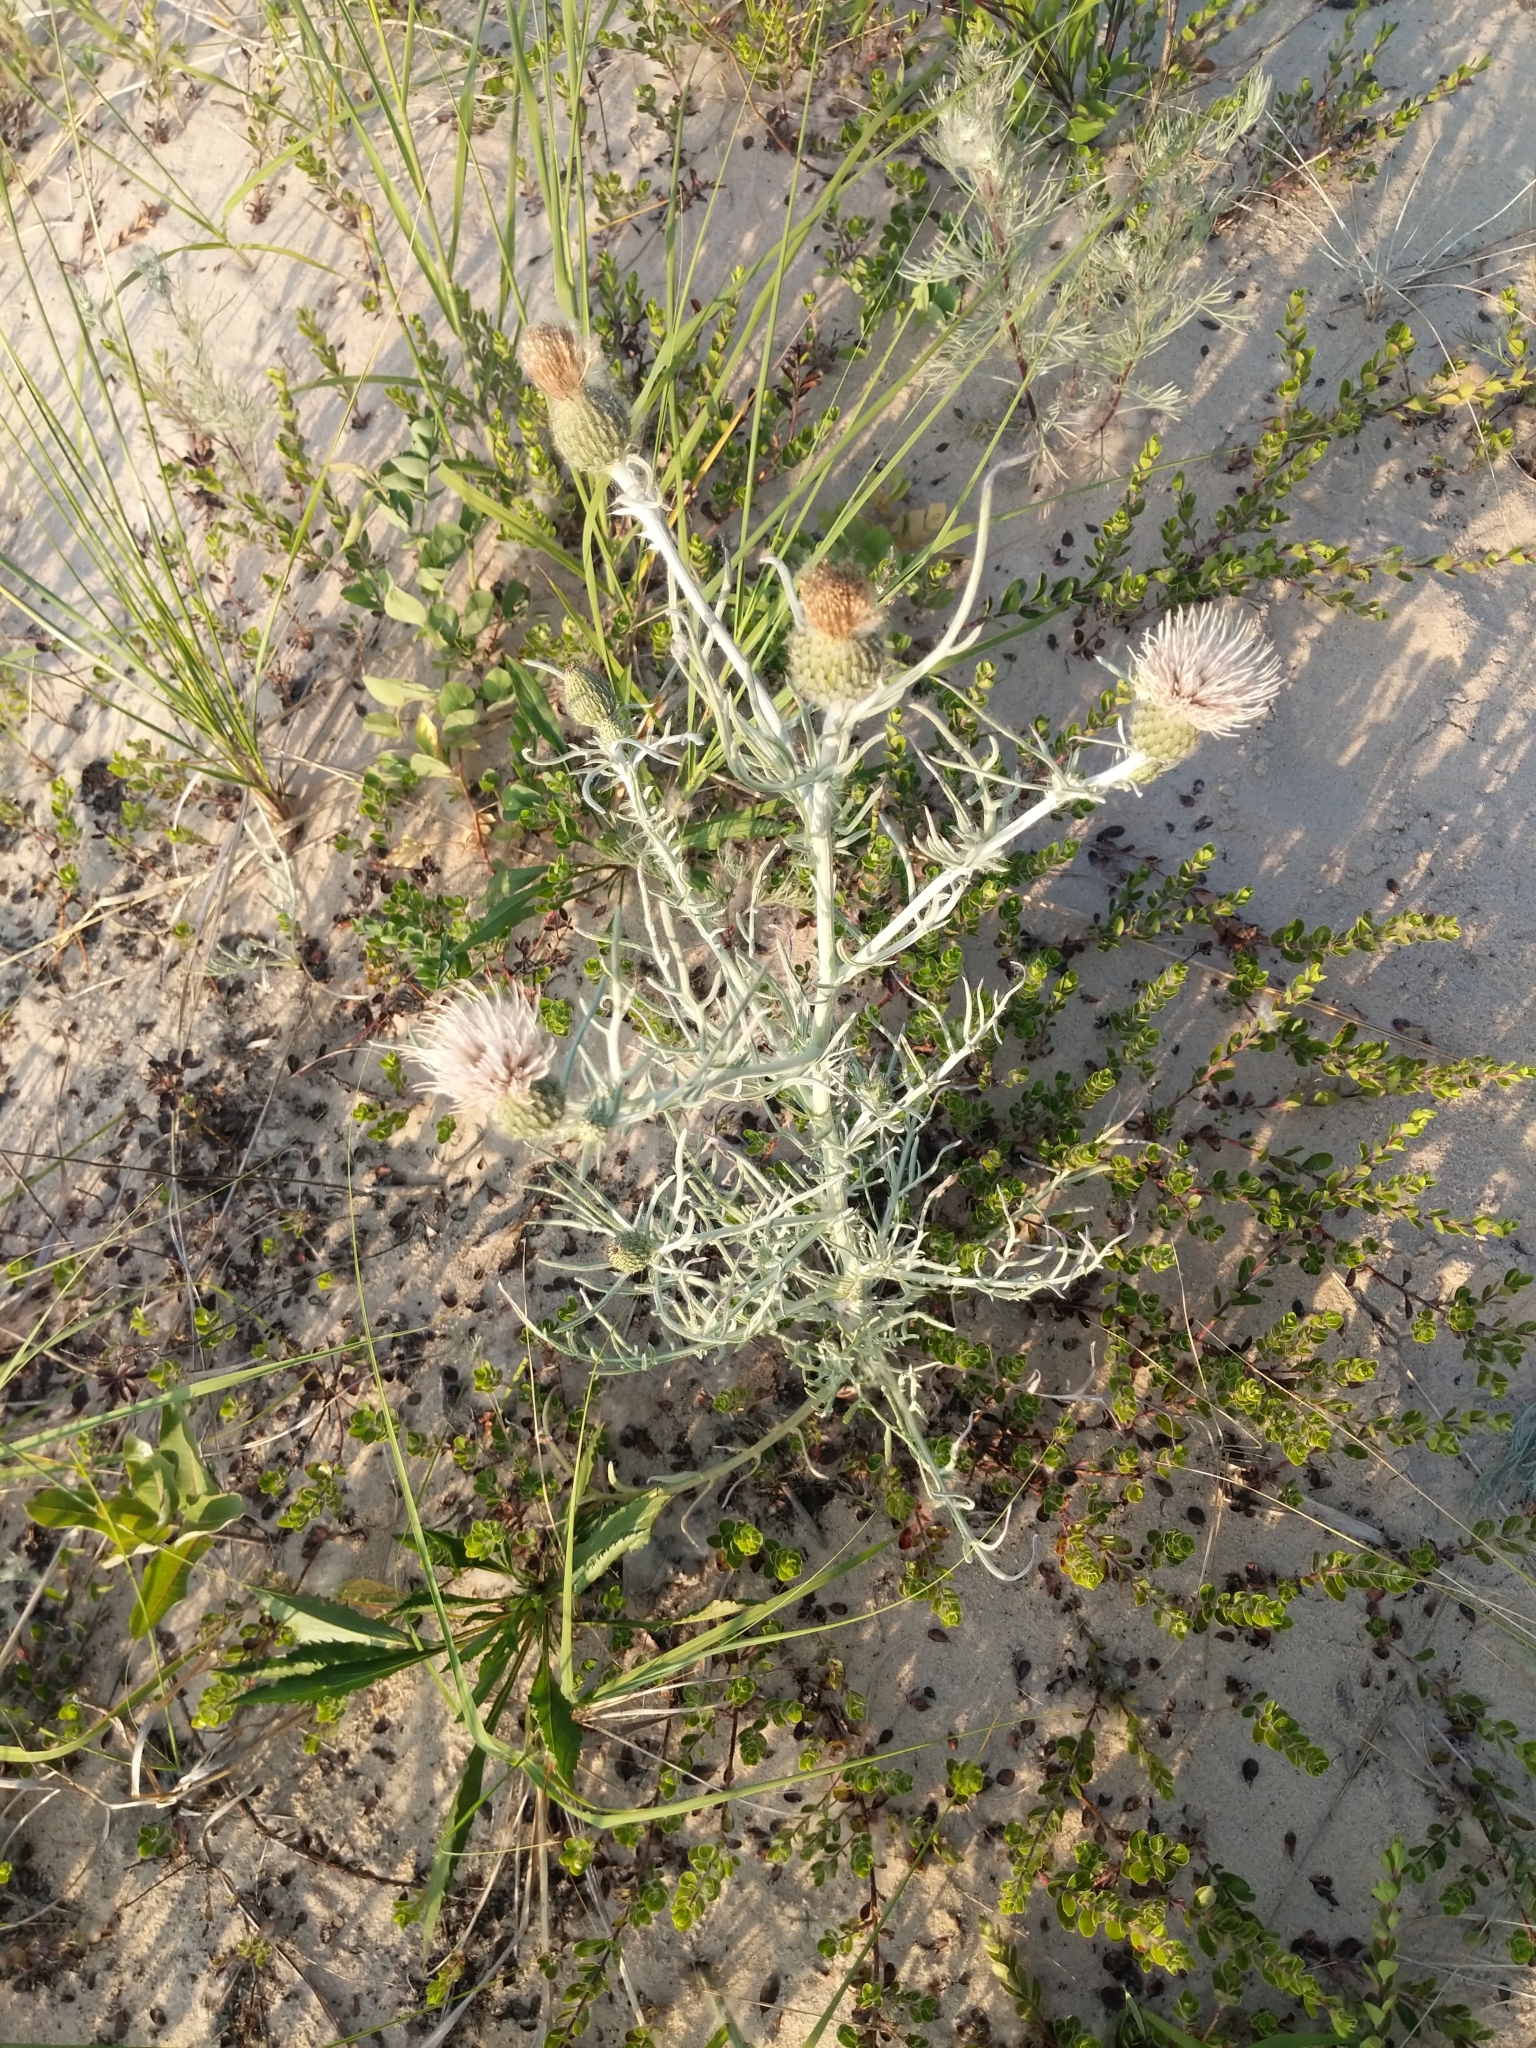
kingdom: Plantae
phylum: Tracheophyta
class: Magnoliopsida
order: Asterales
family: Asteraceae
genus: Cirsium
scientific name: Cirsium pitcheri
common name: Dune thistle
